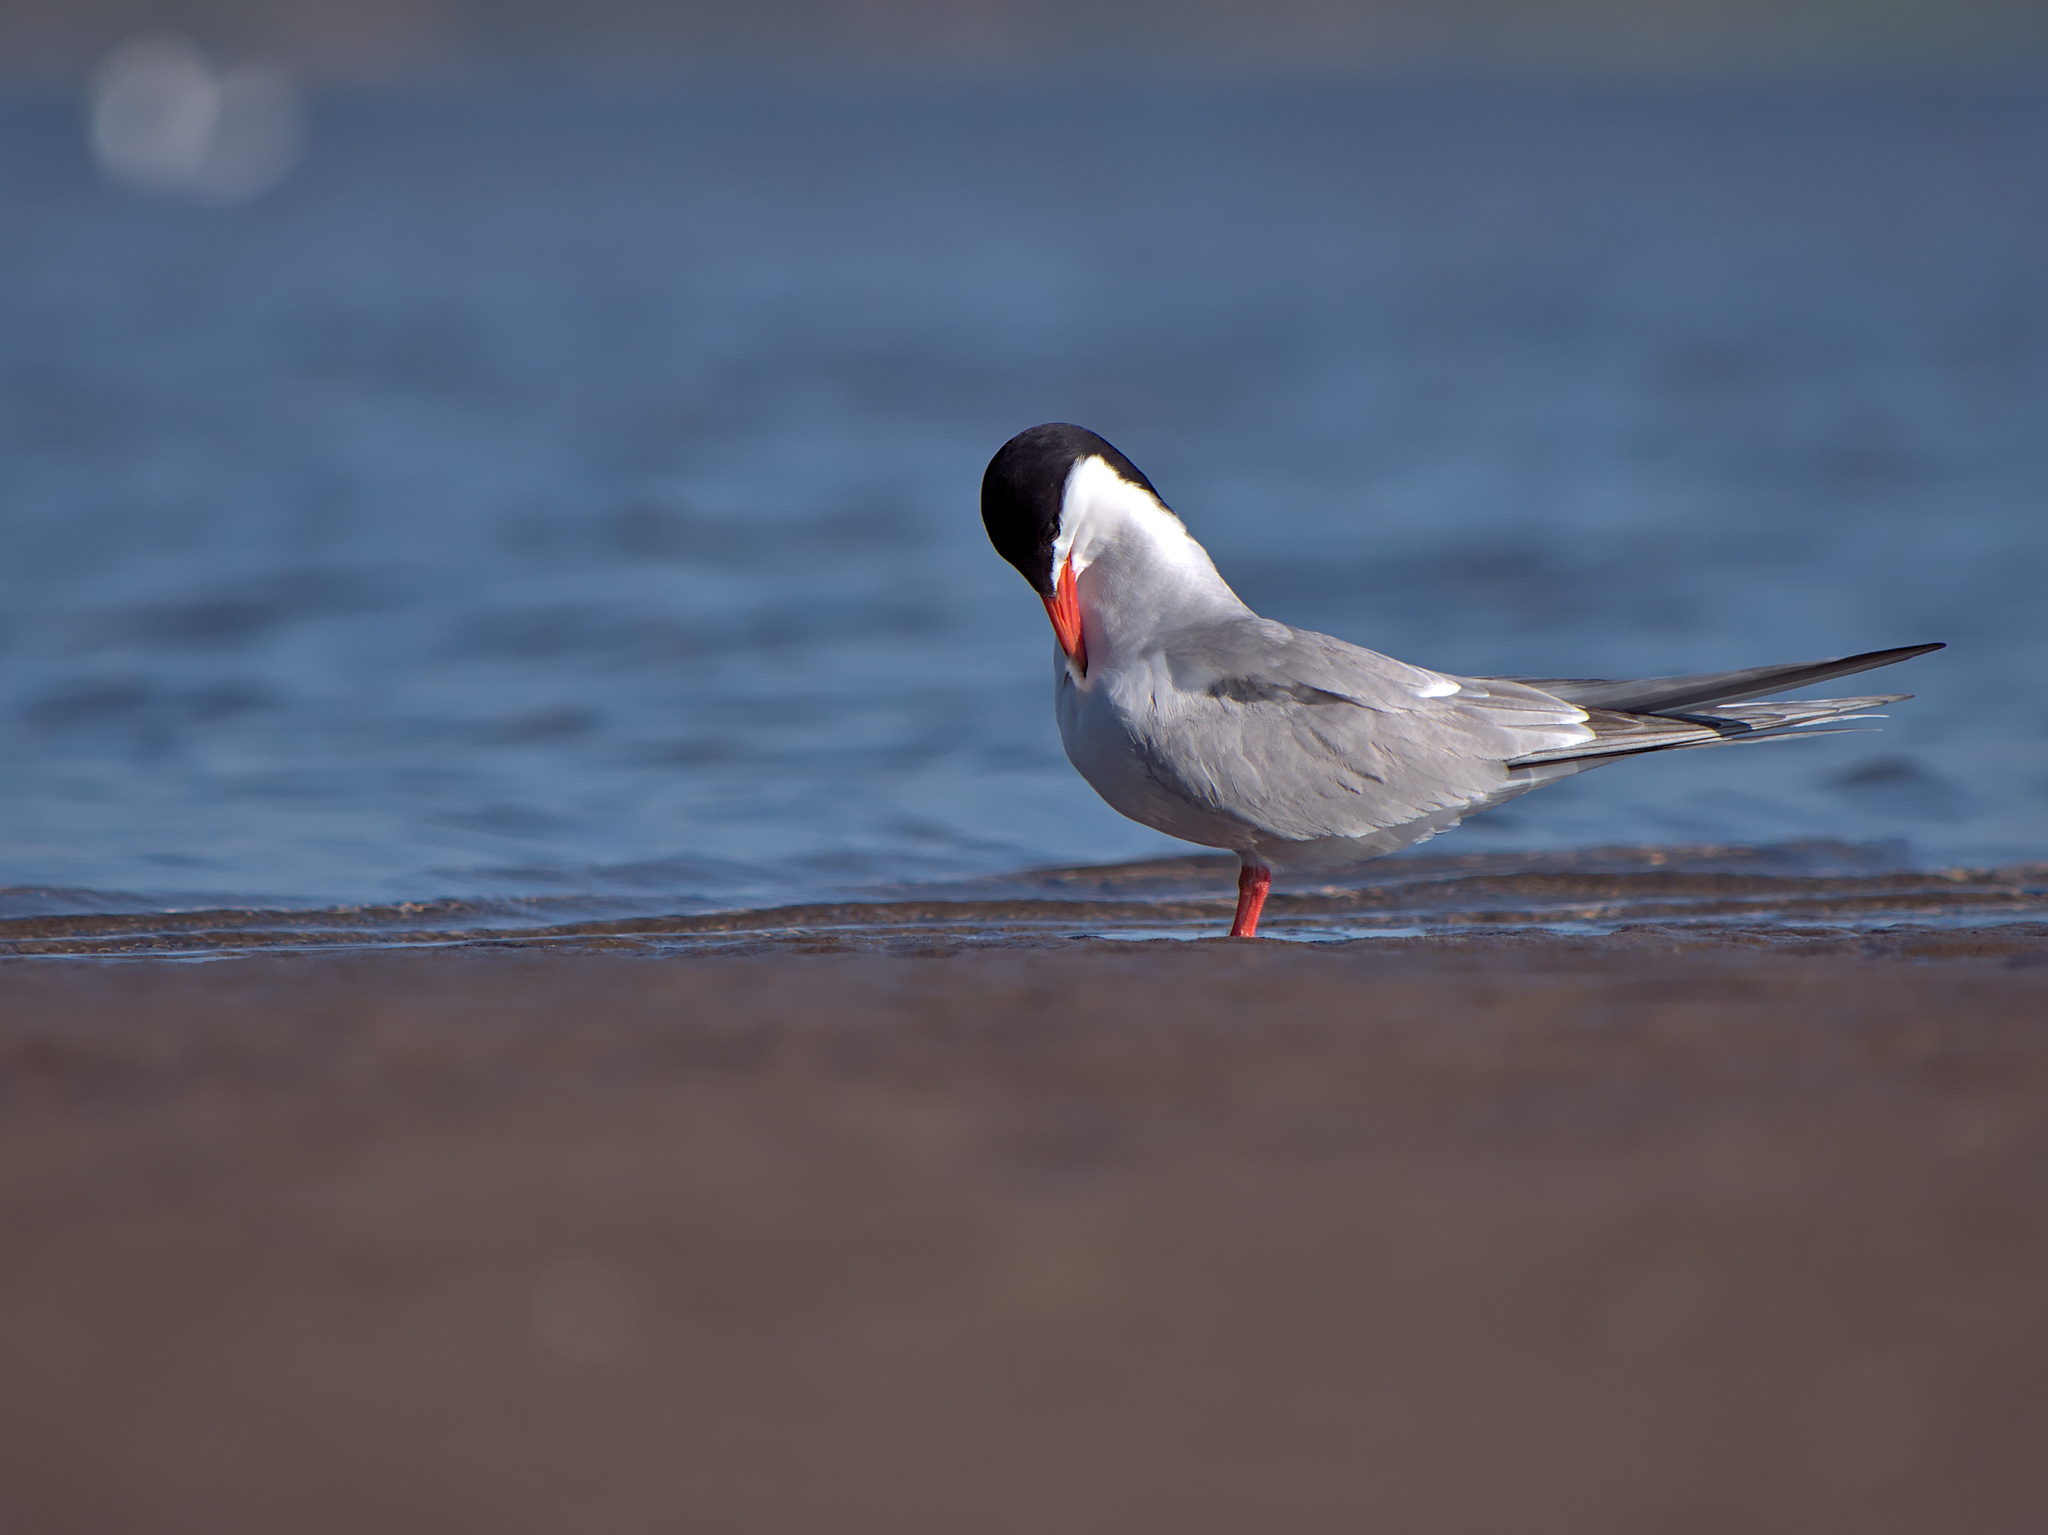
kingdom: Animalia
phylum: Chordata
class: Aves
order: Charadriiformes
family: Laridae
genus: Sterna
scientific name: Sterna hirundo
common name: Common tern
